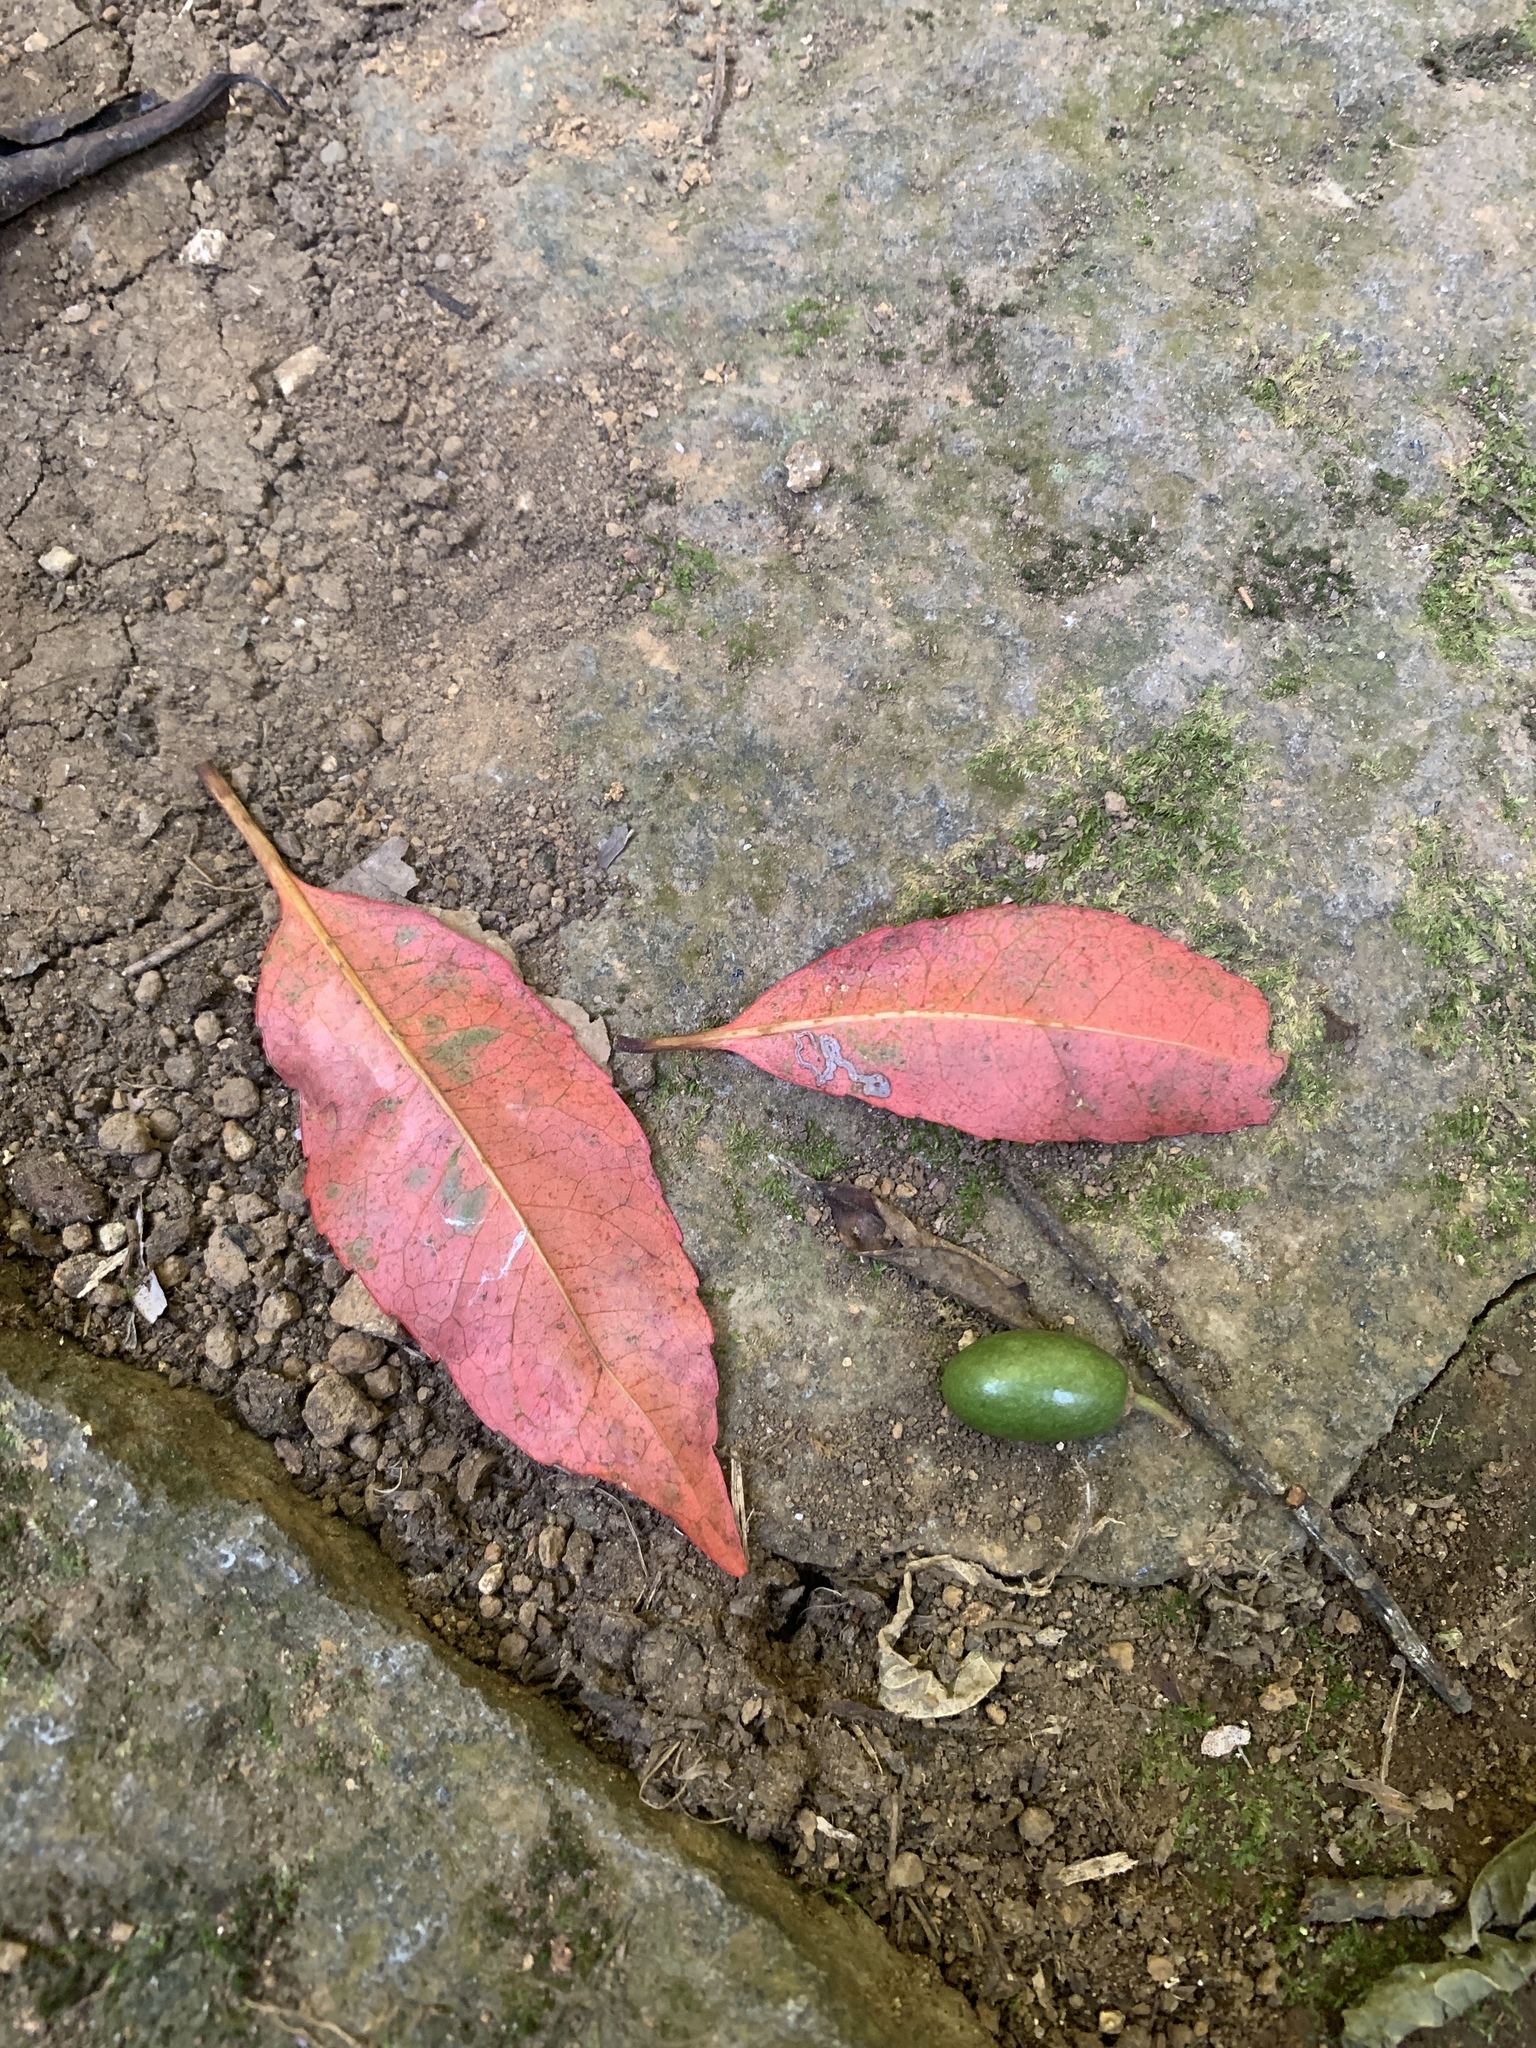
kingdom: Plantae
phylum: Tracheophyta
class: Magnoliopsida
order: Oxalidales
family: Elaeocarpaceae
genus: Elaeocarpus
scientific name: Elaeocarpus decipiens
